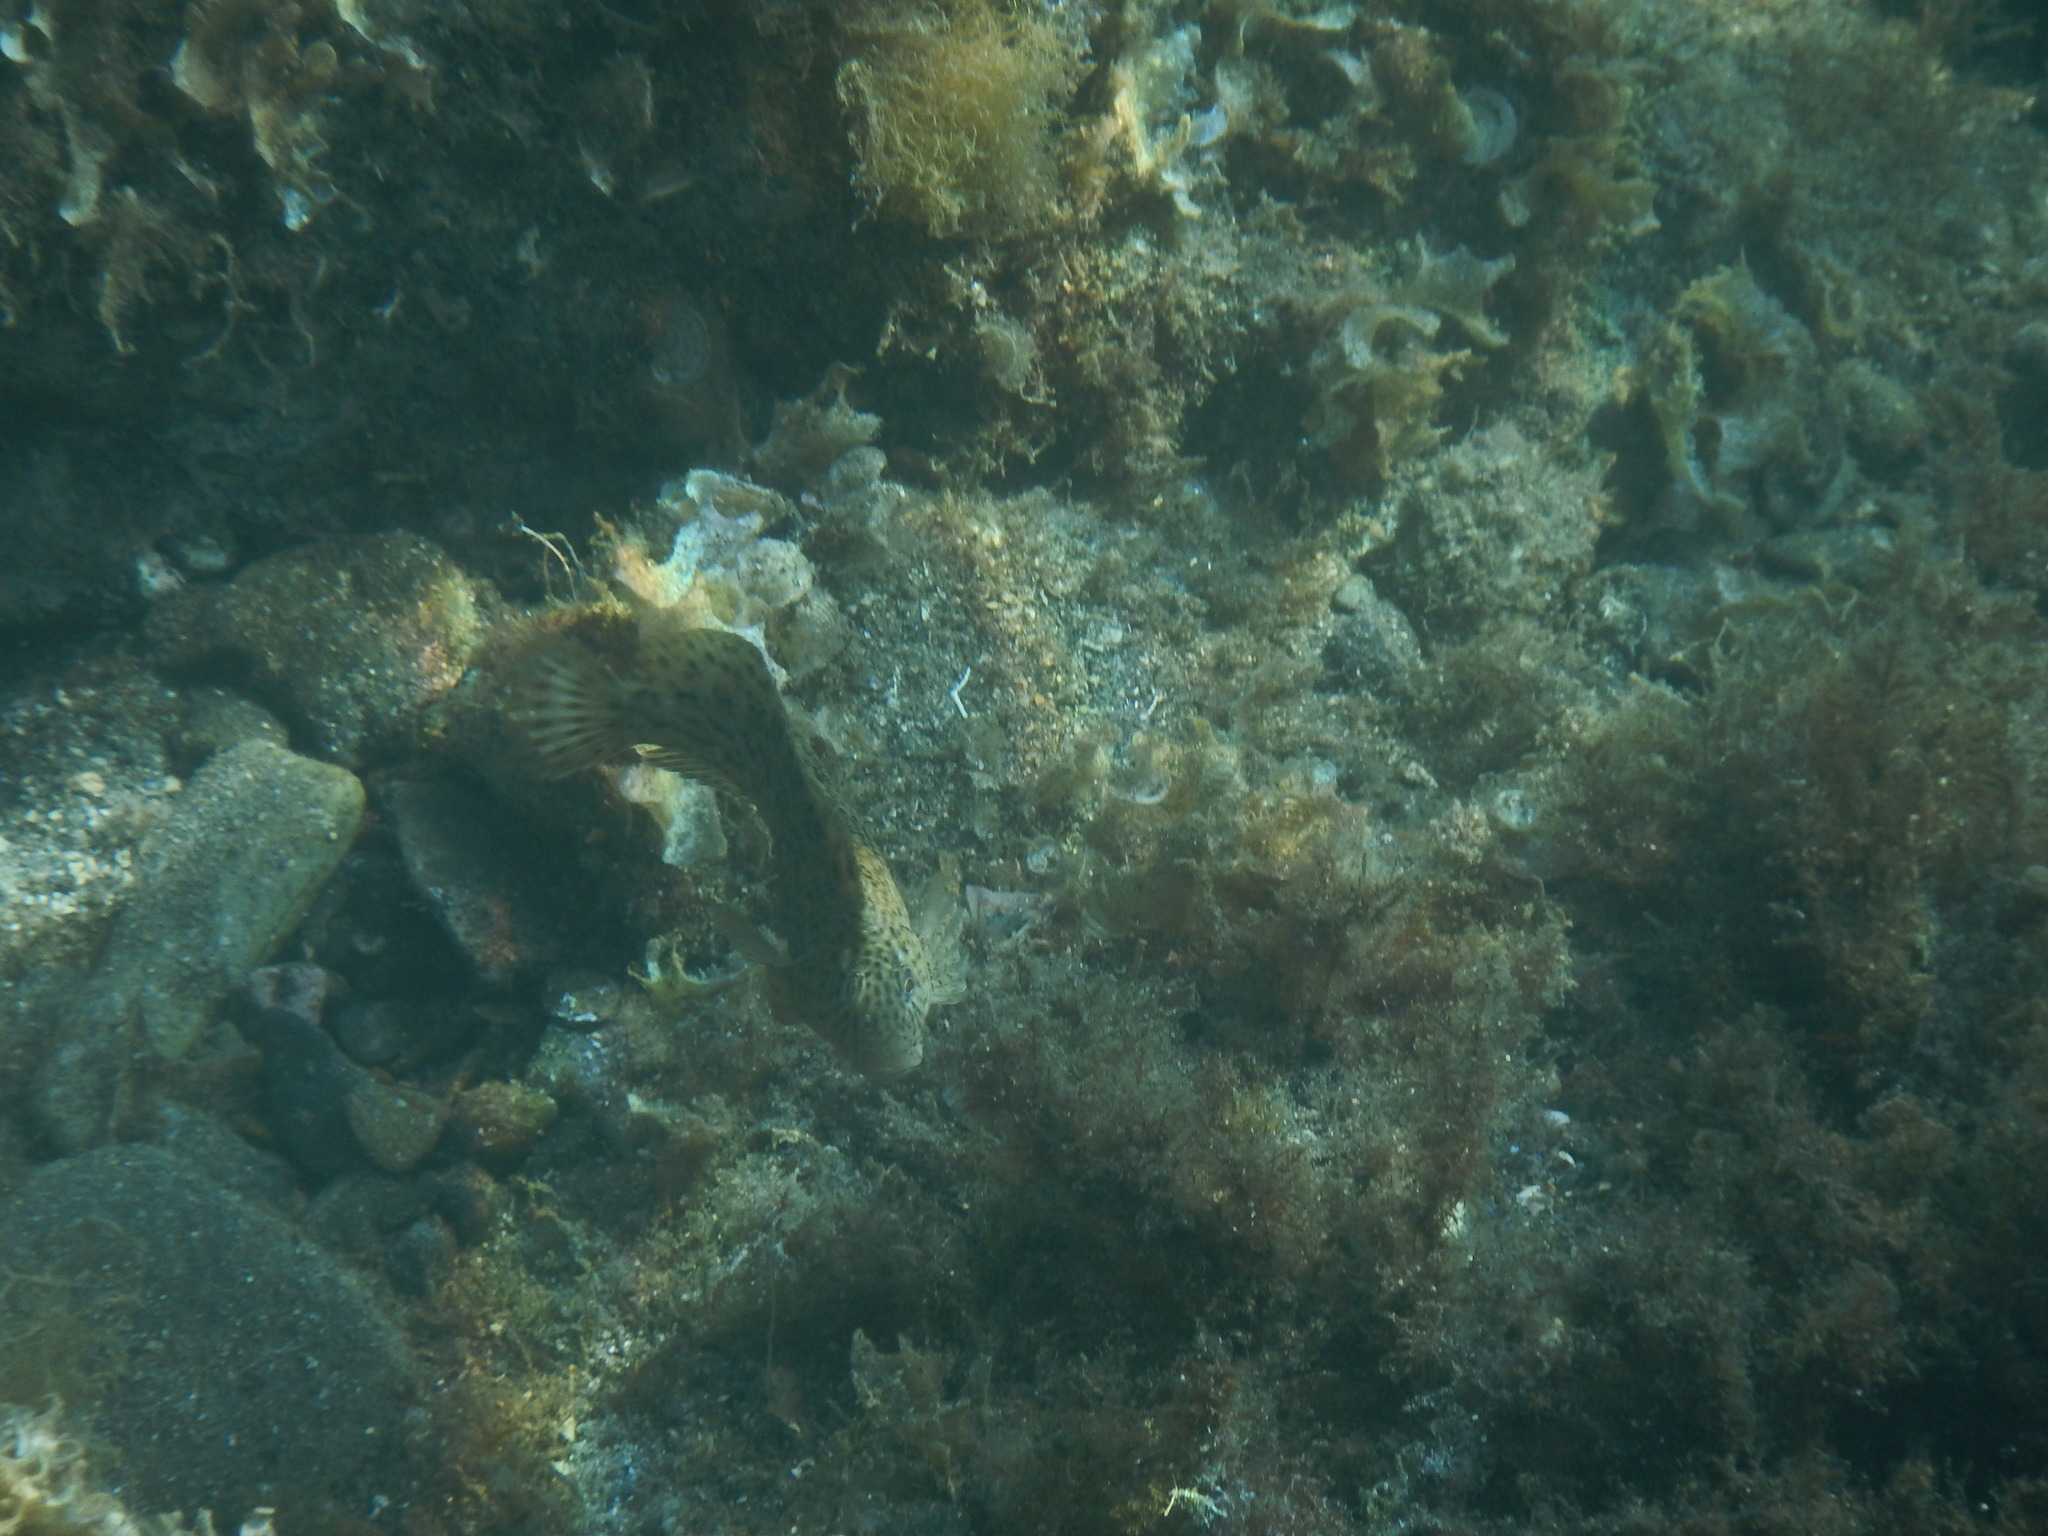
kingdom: Animalia
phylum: Chordata
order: Perciformes
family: Blenniidae
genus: Parablennius
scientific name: Parablennius sanguinolentus
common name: Black sea blenny
